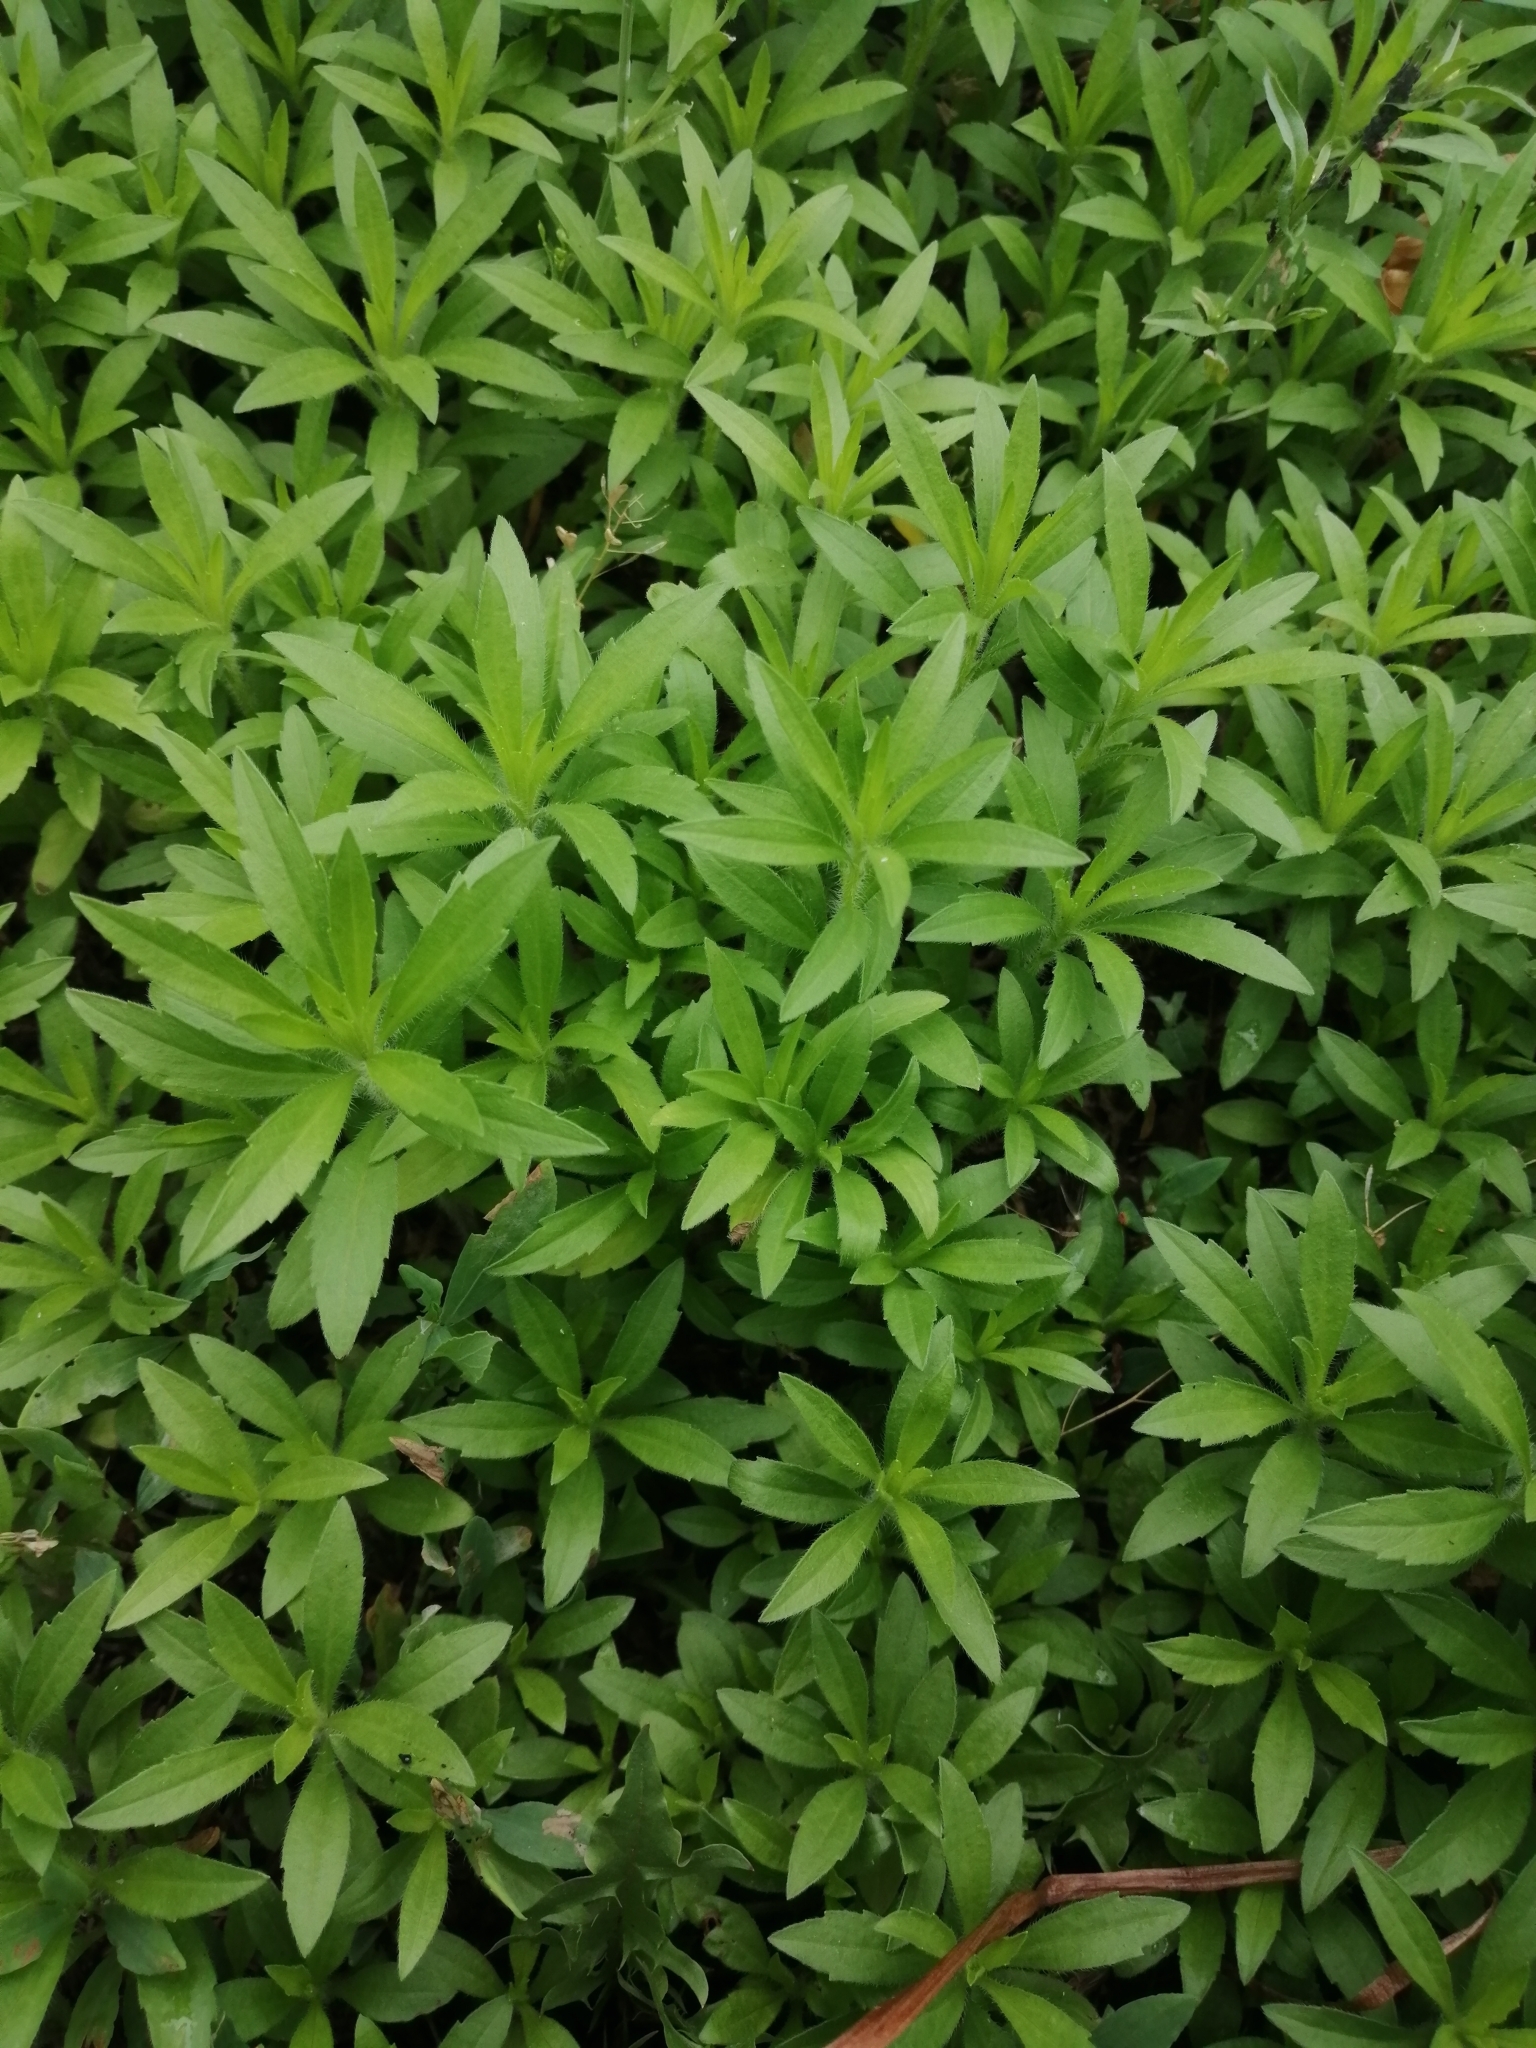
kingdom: Plantae
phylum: Tracheophyta
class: Magnoliopsida
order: Asterales
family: Asteraceae
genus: Erigeron
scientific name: Erigeron canadensis
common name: Canadian fleabane
